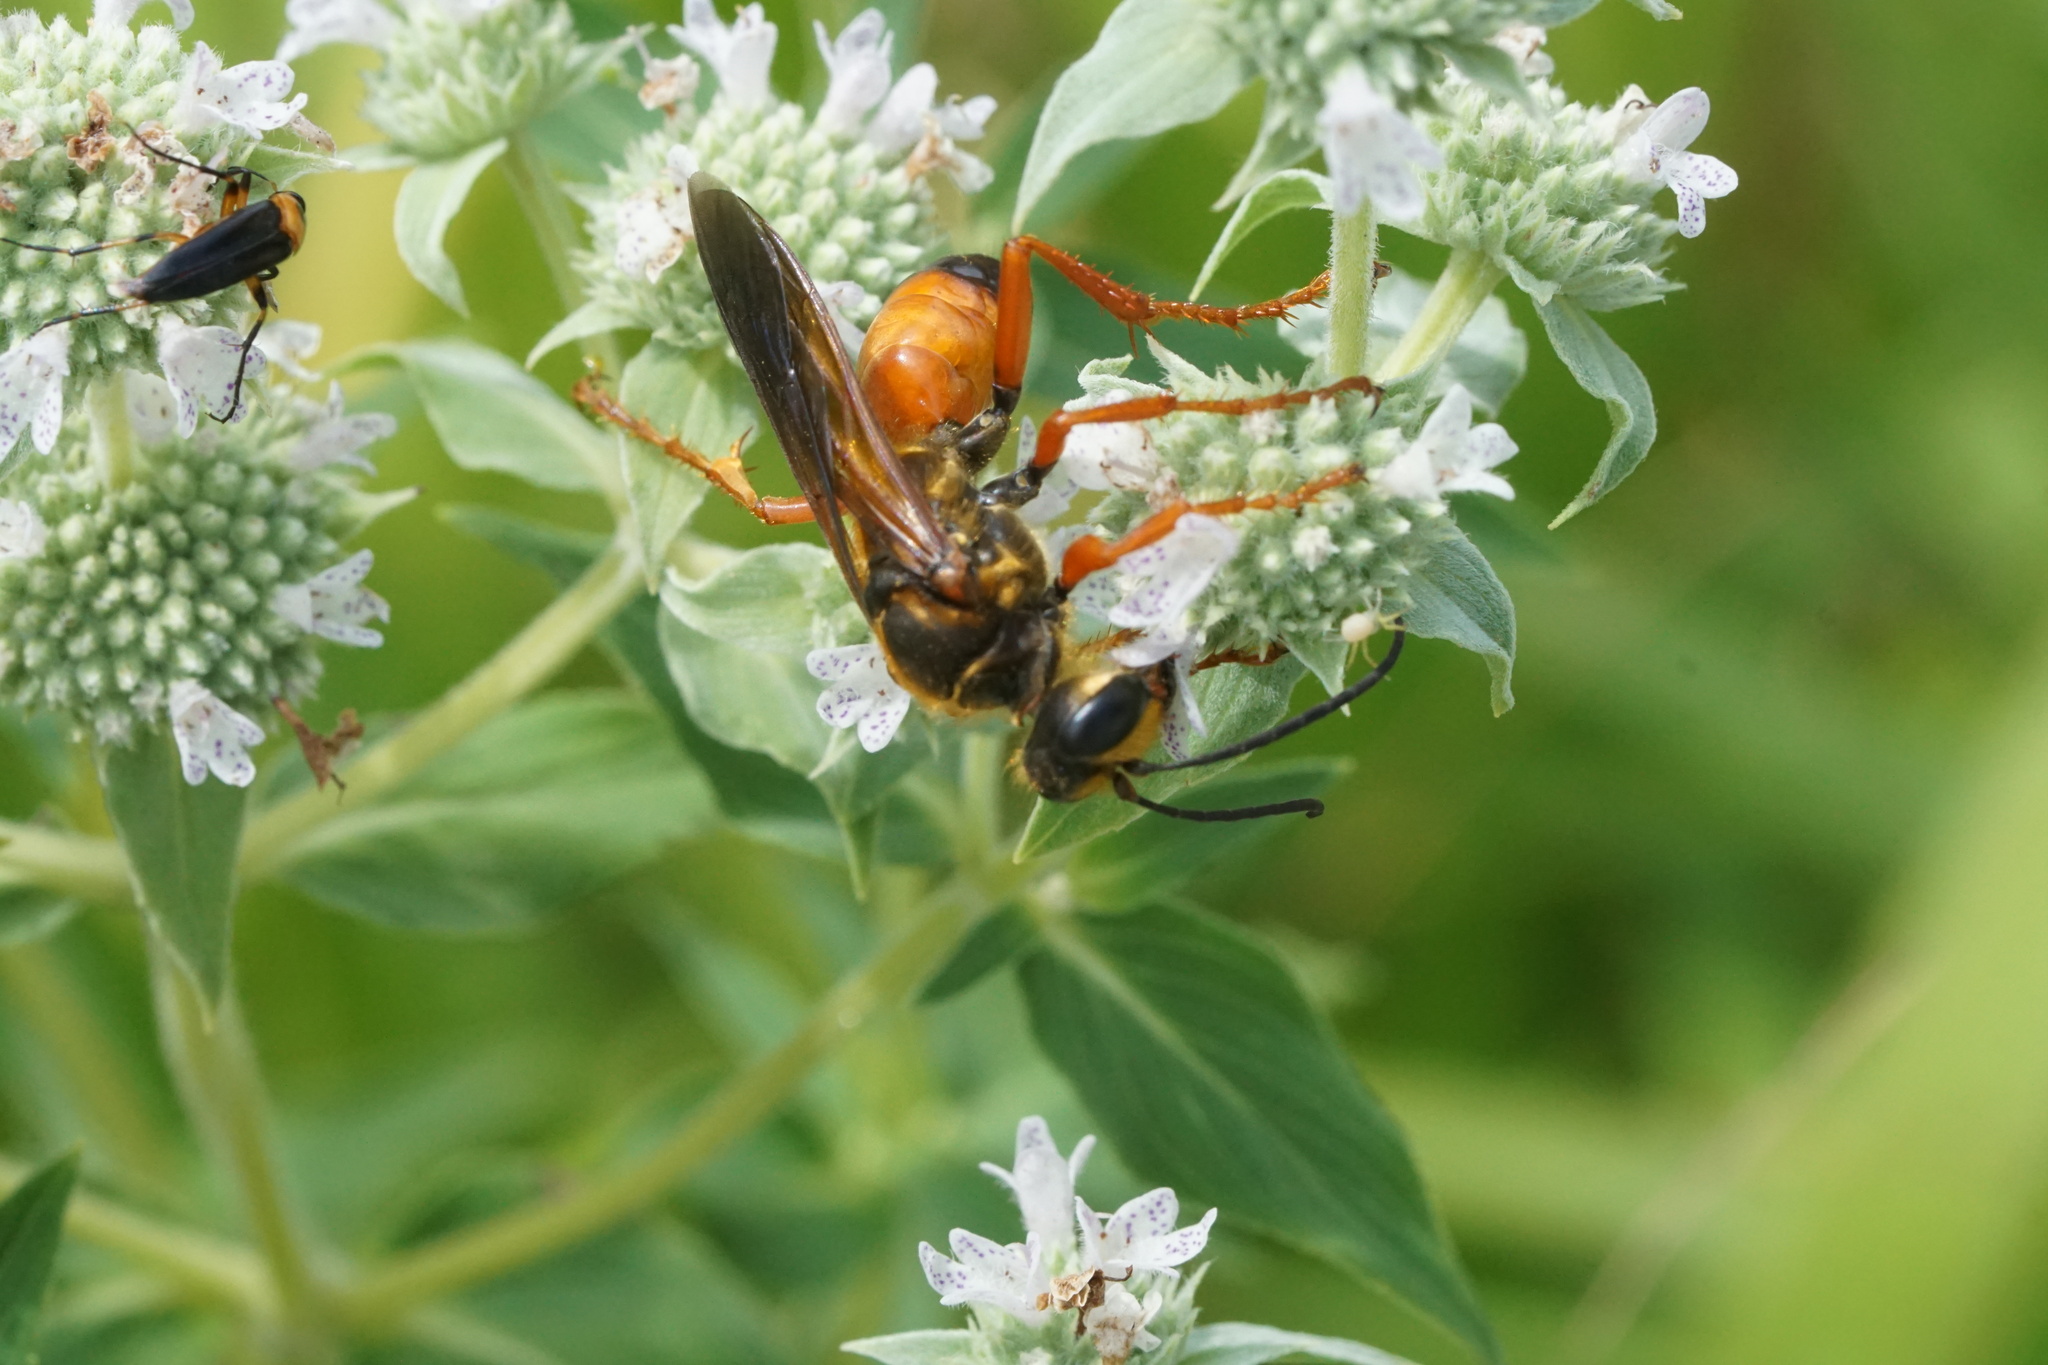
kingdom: Animalia
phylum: Arthropoda
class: Insecta
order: Hymenoptera
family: Sphecidae
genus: Sphex
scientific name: Sphex ichneumoneus
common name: Great golden digger wasp
